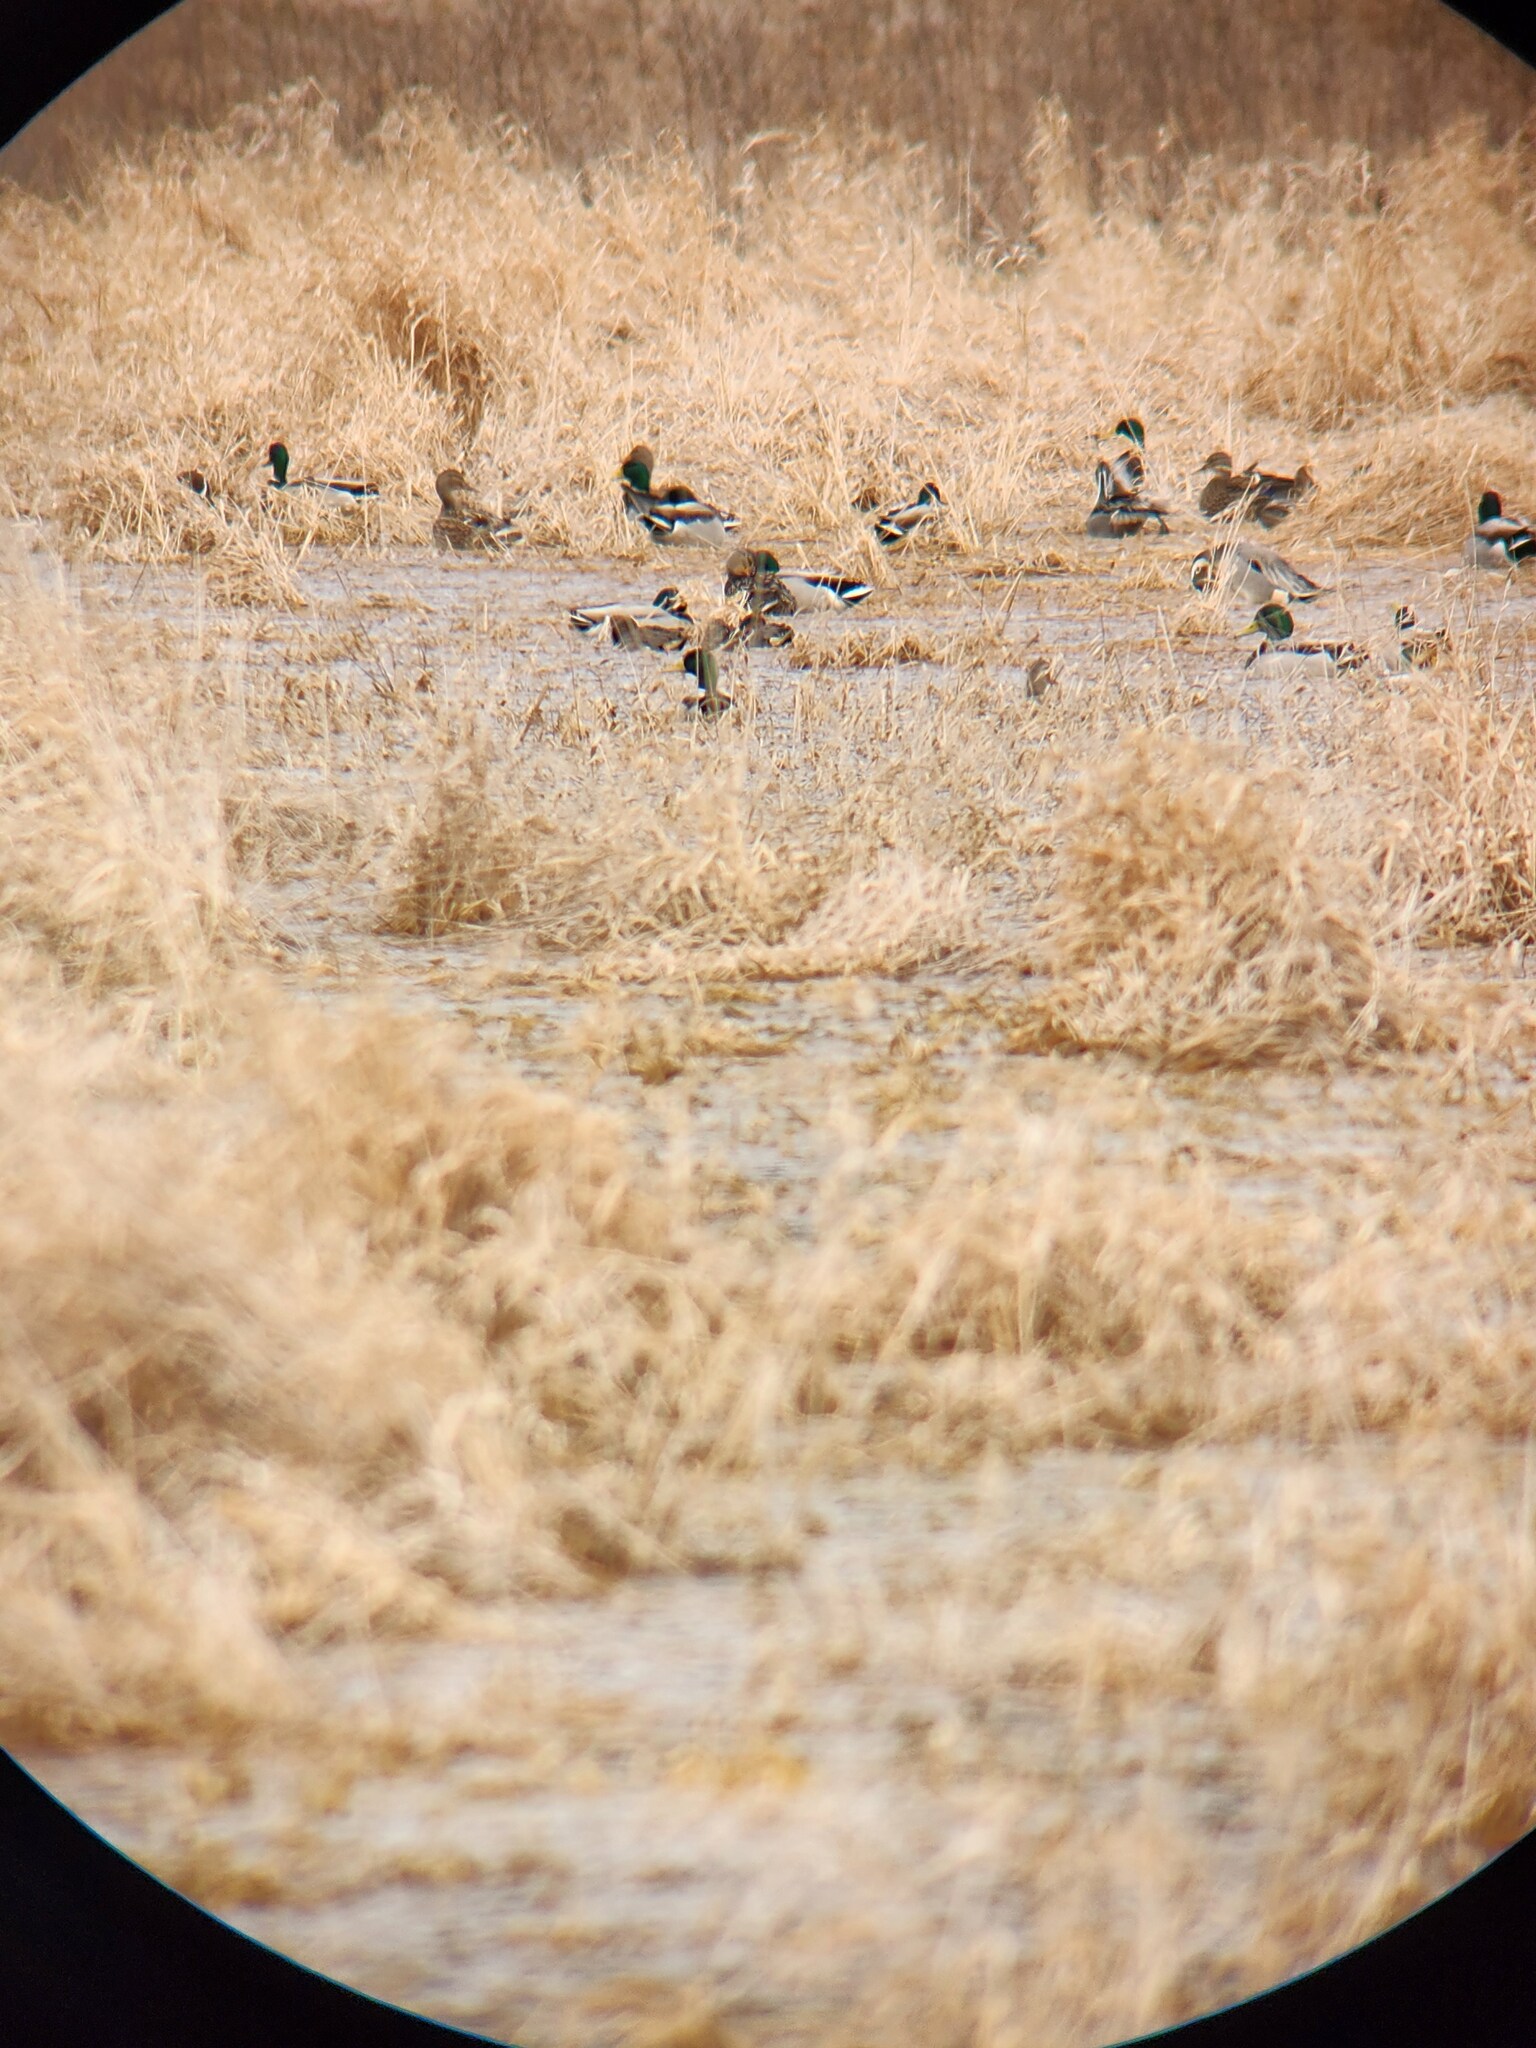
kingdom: Animalia
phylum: Chordata
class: Aves
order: Anseriformes
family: Anatidae
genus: Anas
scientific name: Anas platyrhynchos
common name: Mallard
